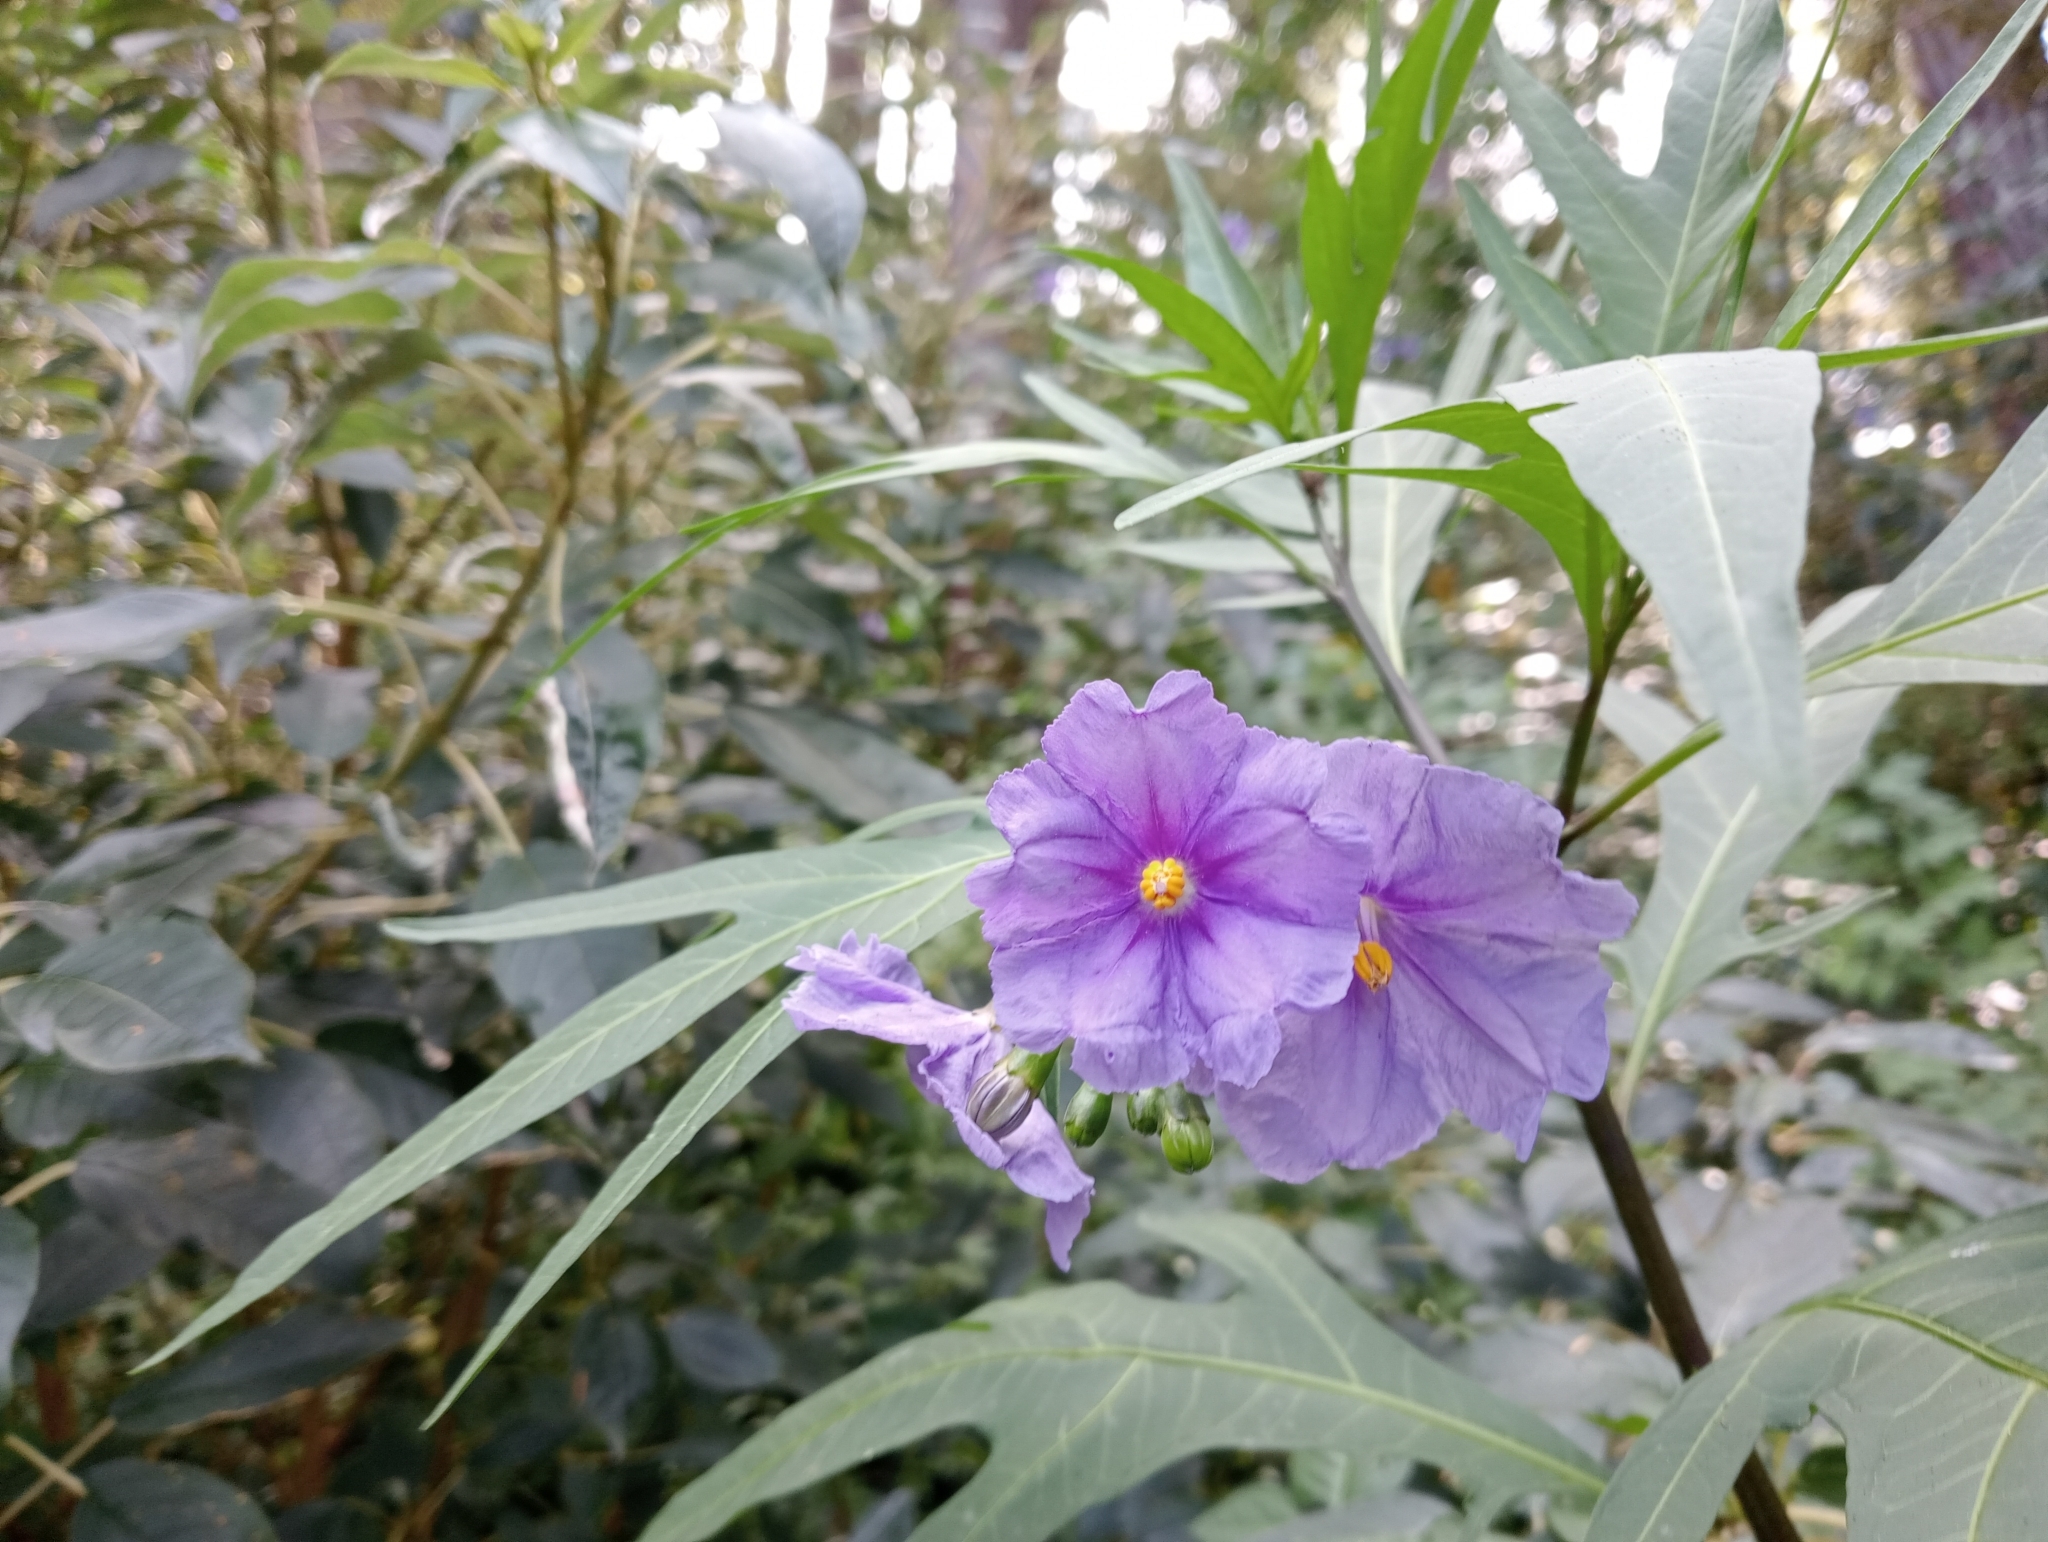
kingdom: Plantae
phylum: Tracheophyta
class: Magnoliopsida
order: Solanales
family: Solanaceae
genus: Solanum
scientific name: Solanum laciniatum
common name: Kangaroo-apple
